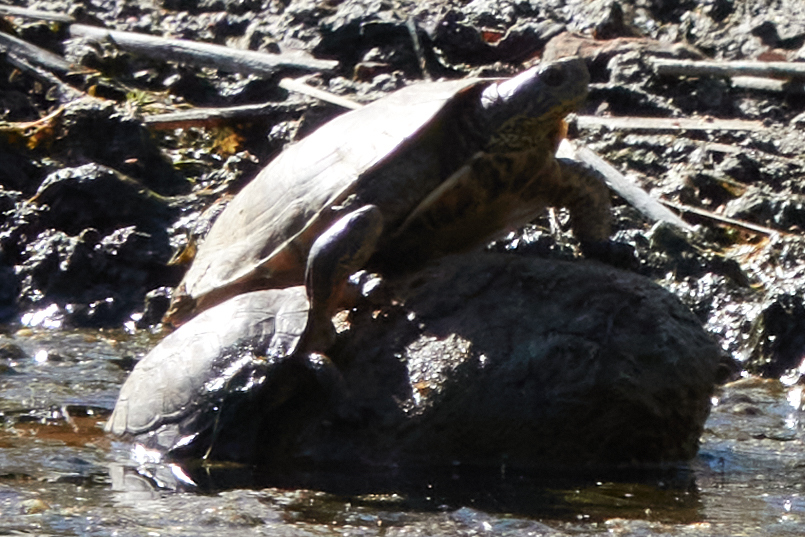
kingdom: Animalia
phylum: Chordata
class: Testudines
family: Emydidae
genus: Actinemys
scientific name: Actinemys marmorata
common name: Western pond turtle
